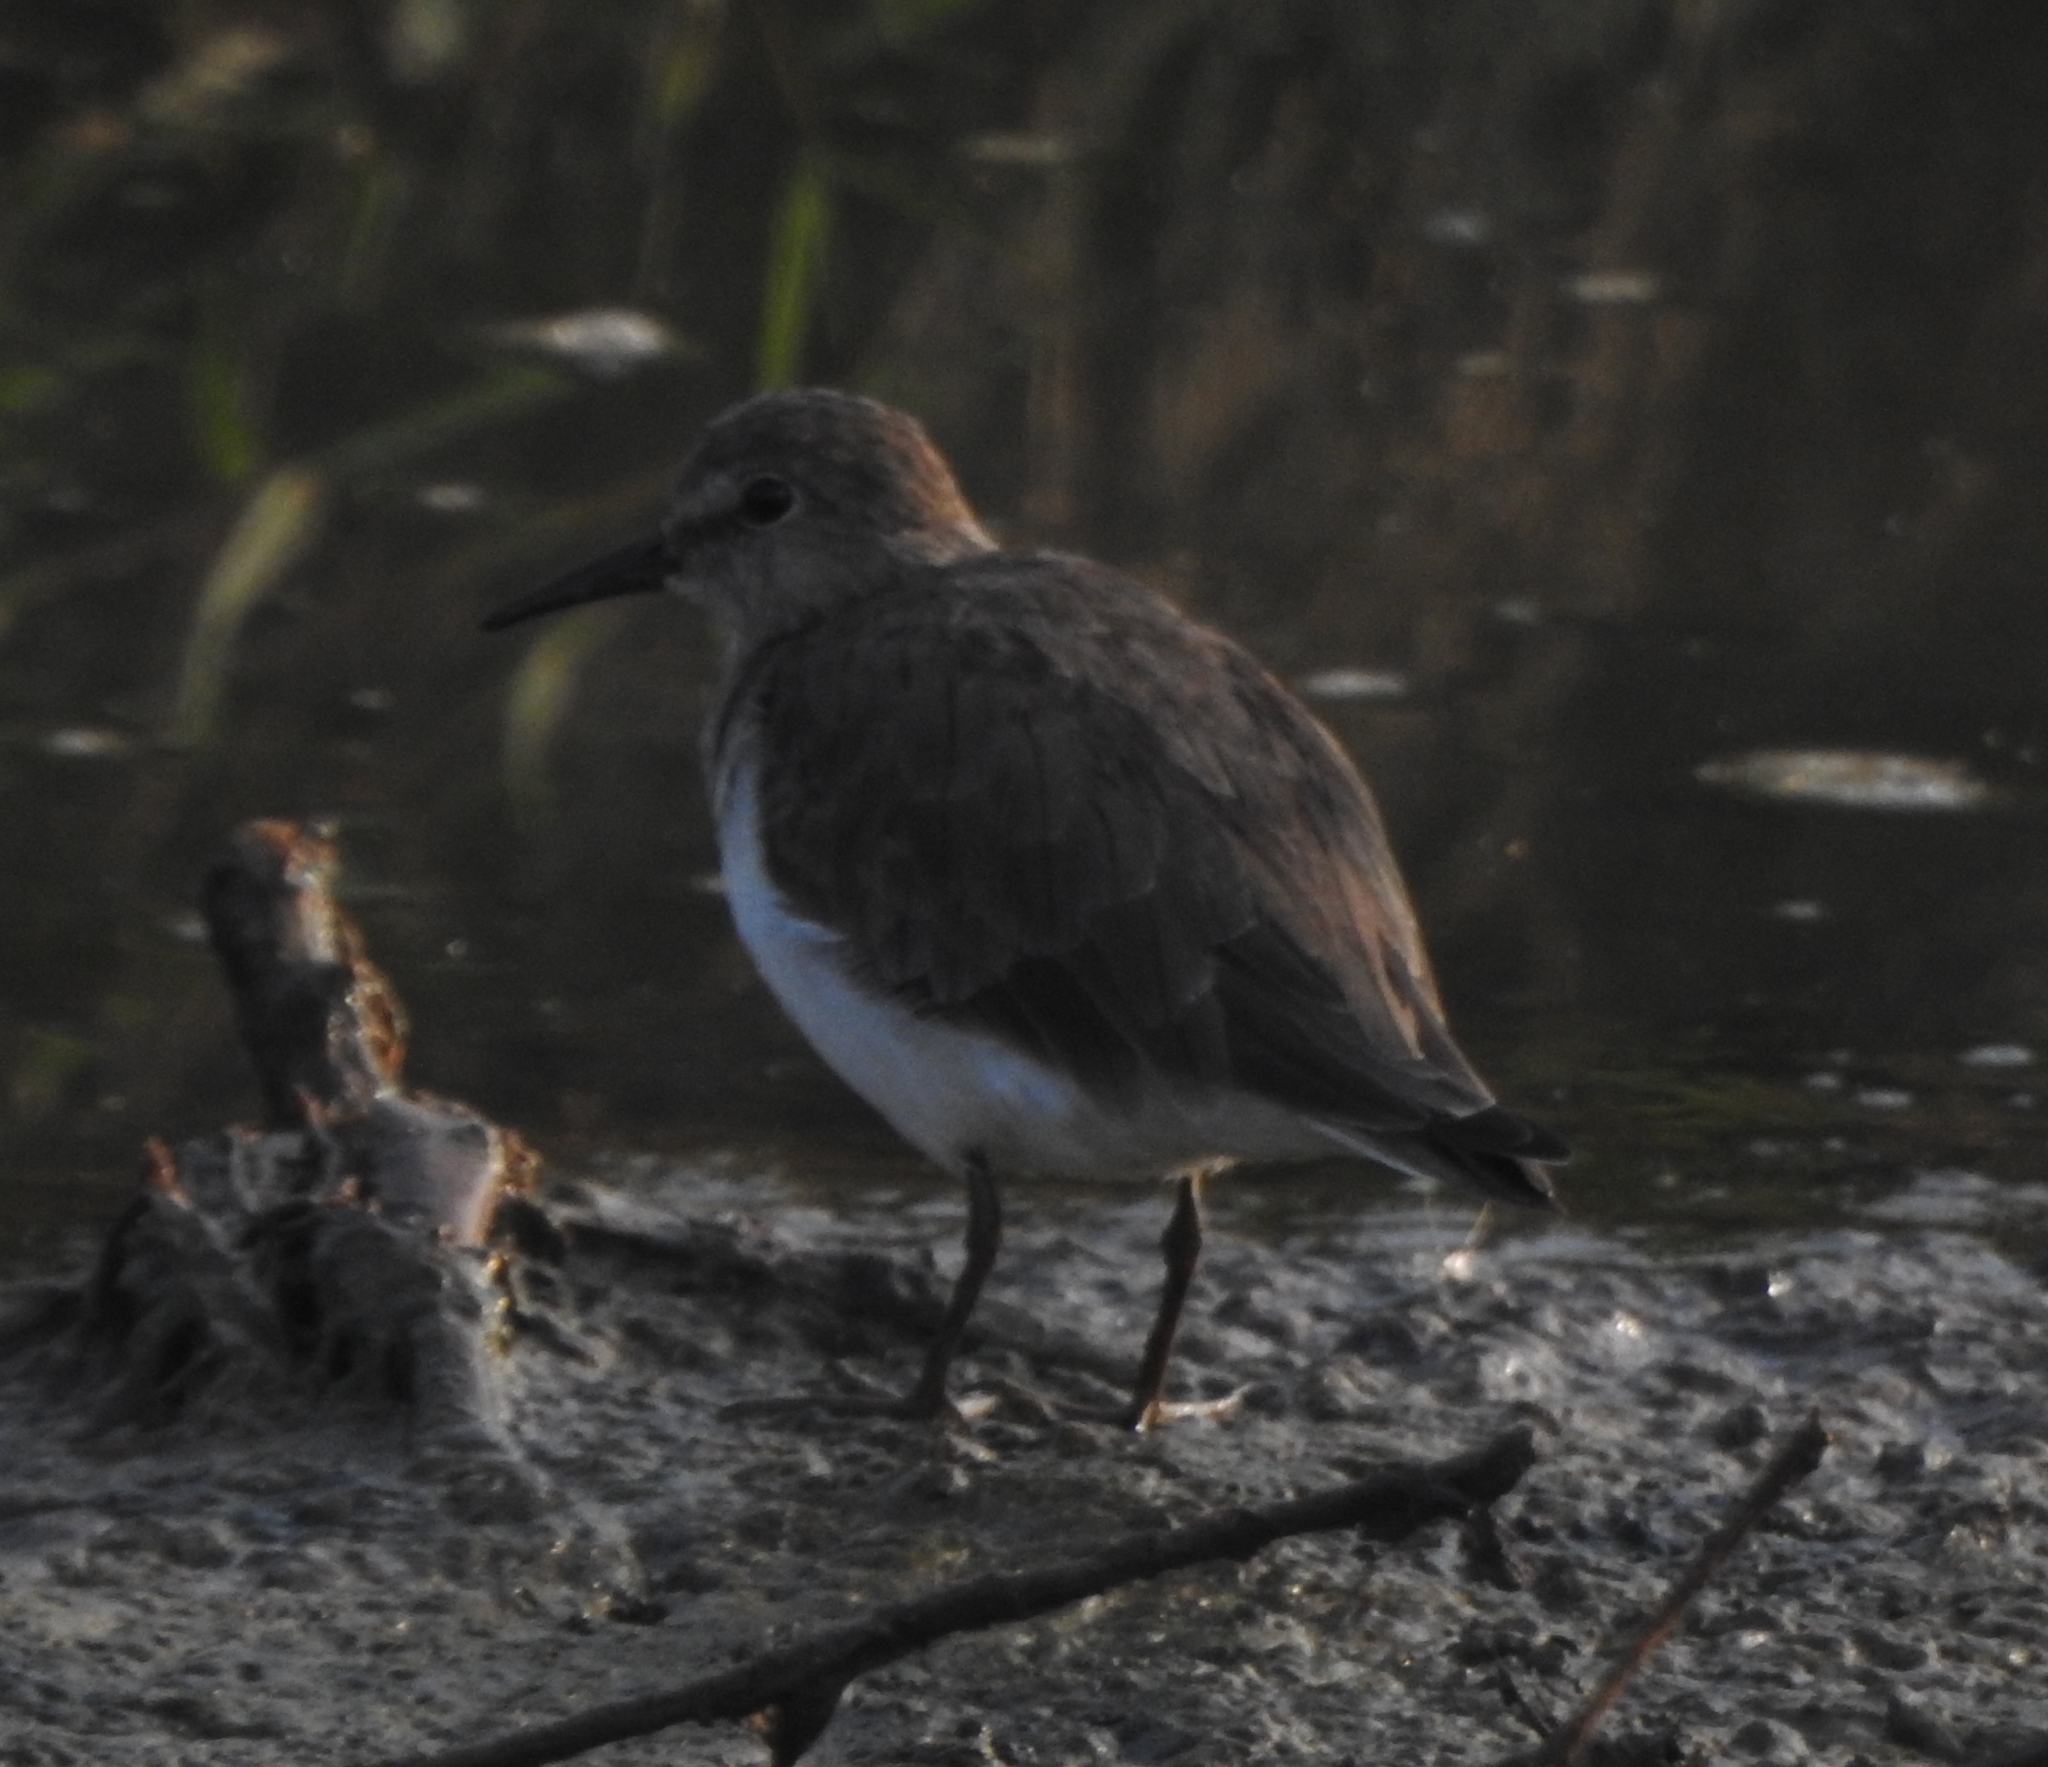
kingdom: Animalia
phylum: Chordata
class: Aves
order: Charadriiformes
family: Scolopacidae
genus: Calidris
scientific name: Calidris temminckii
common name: Temminck's stint
